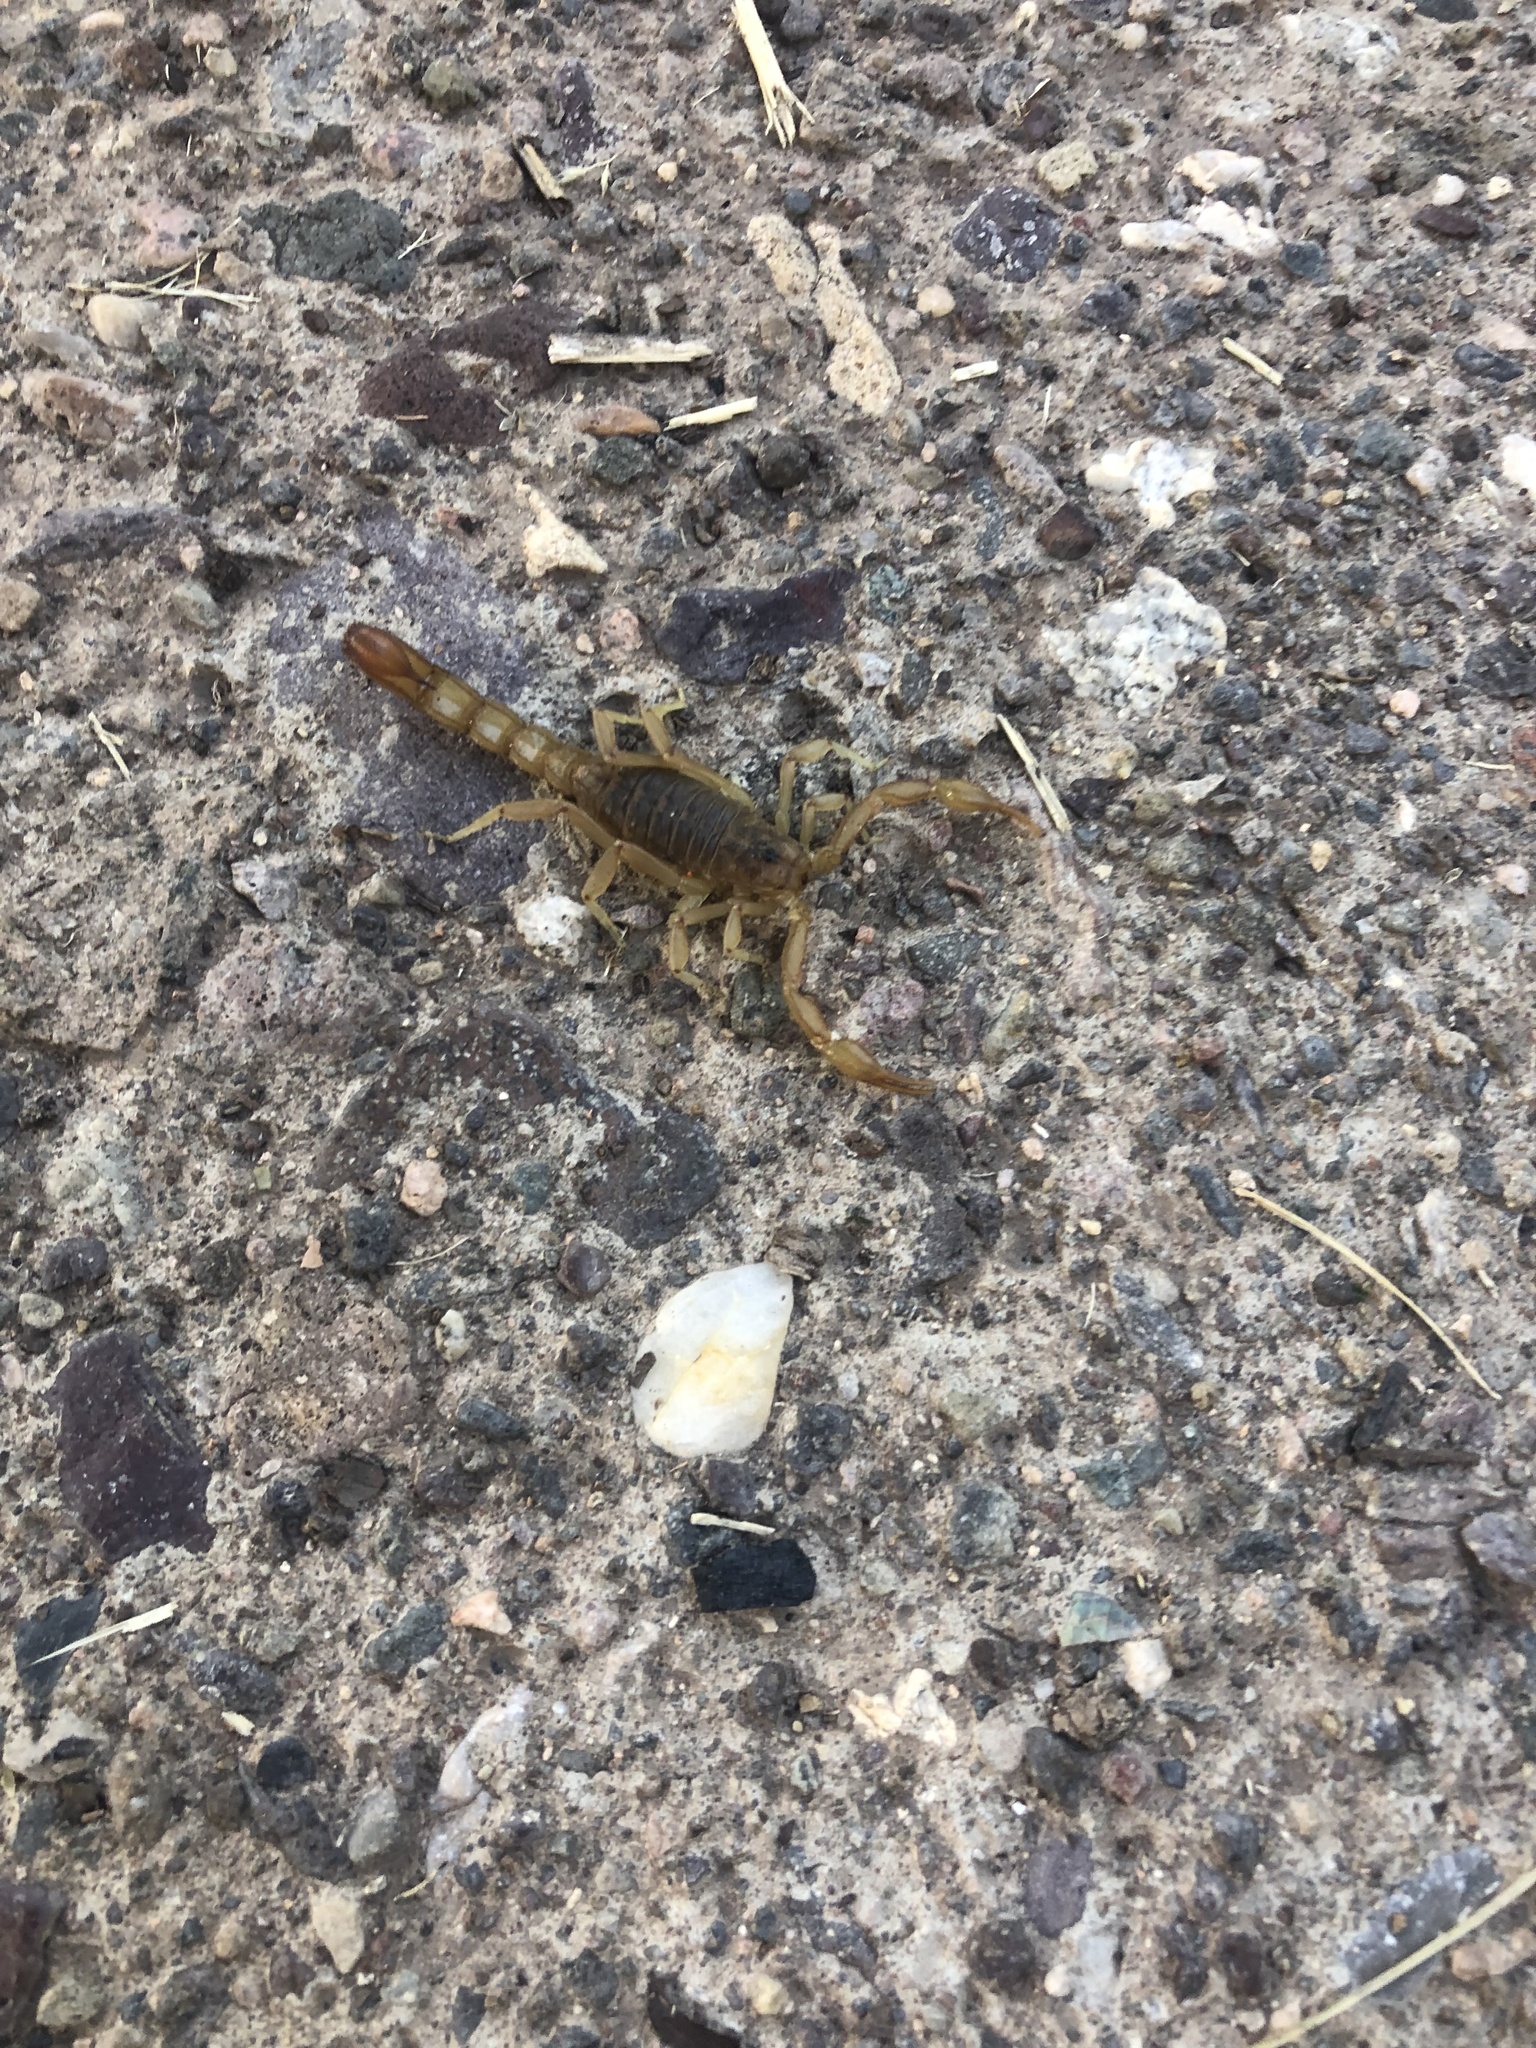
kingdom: Animalia
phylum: Arthropoda
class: Arachnida
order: Scorpiones
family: Vaejovidae
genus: Paravaejovis
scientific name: Paravaejovis spinigerus
